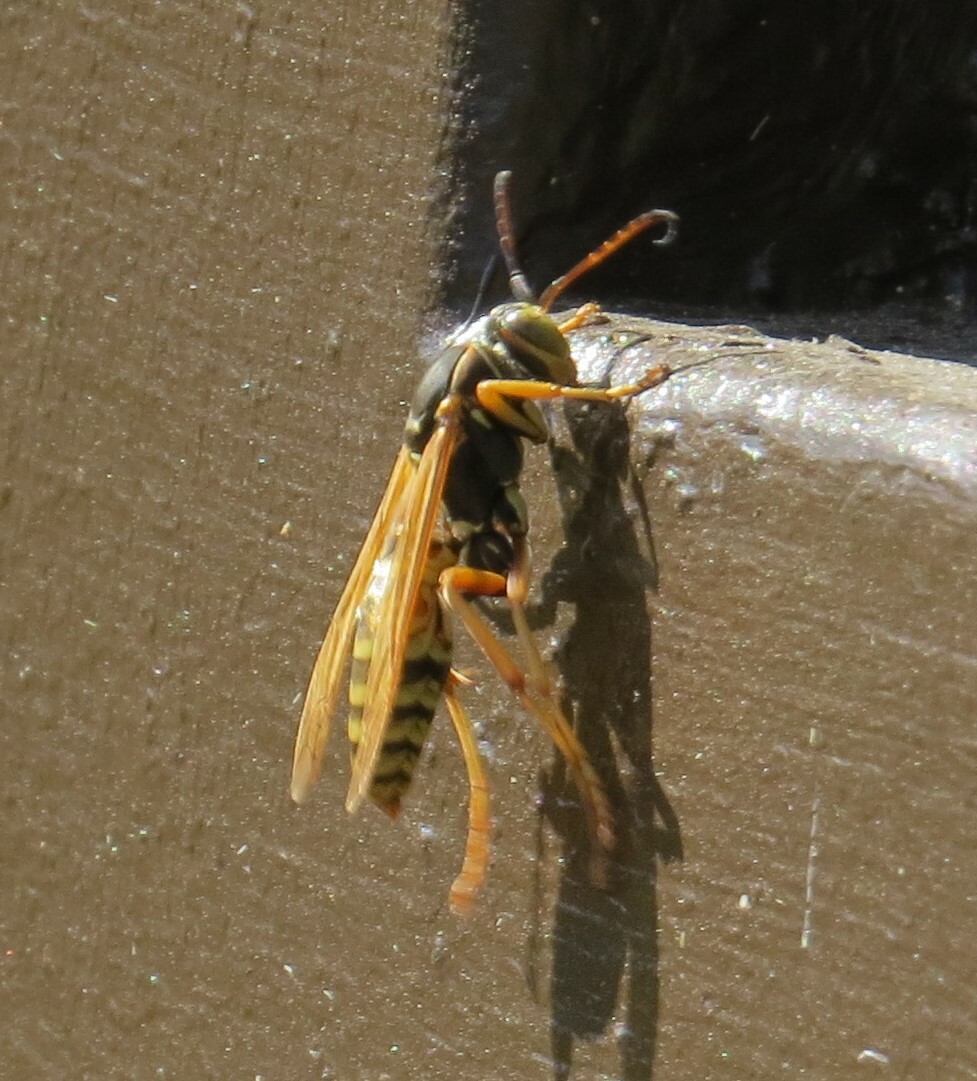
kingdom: Animalia
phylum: Arthropoda
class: Insecta
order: Hymenoptera
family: Eumenidae
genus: Polistes
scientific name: Polistes aurifer
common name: Paper wasp
